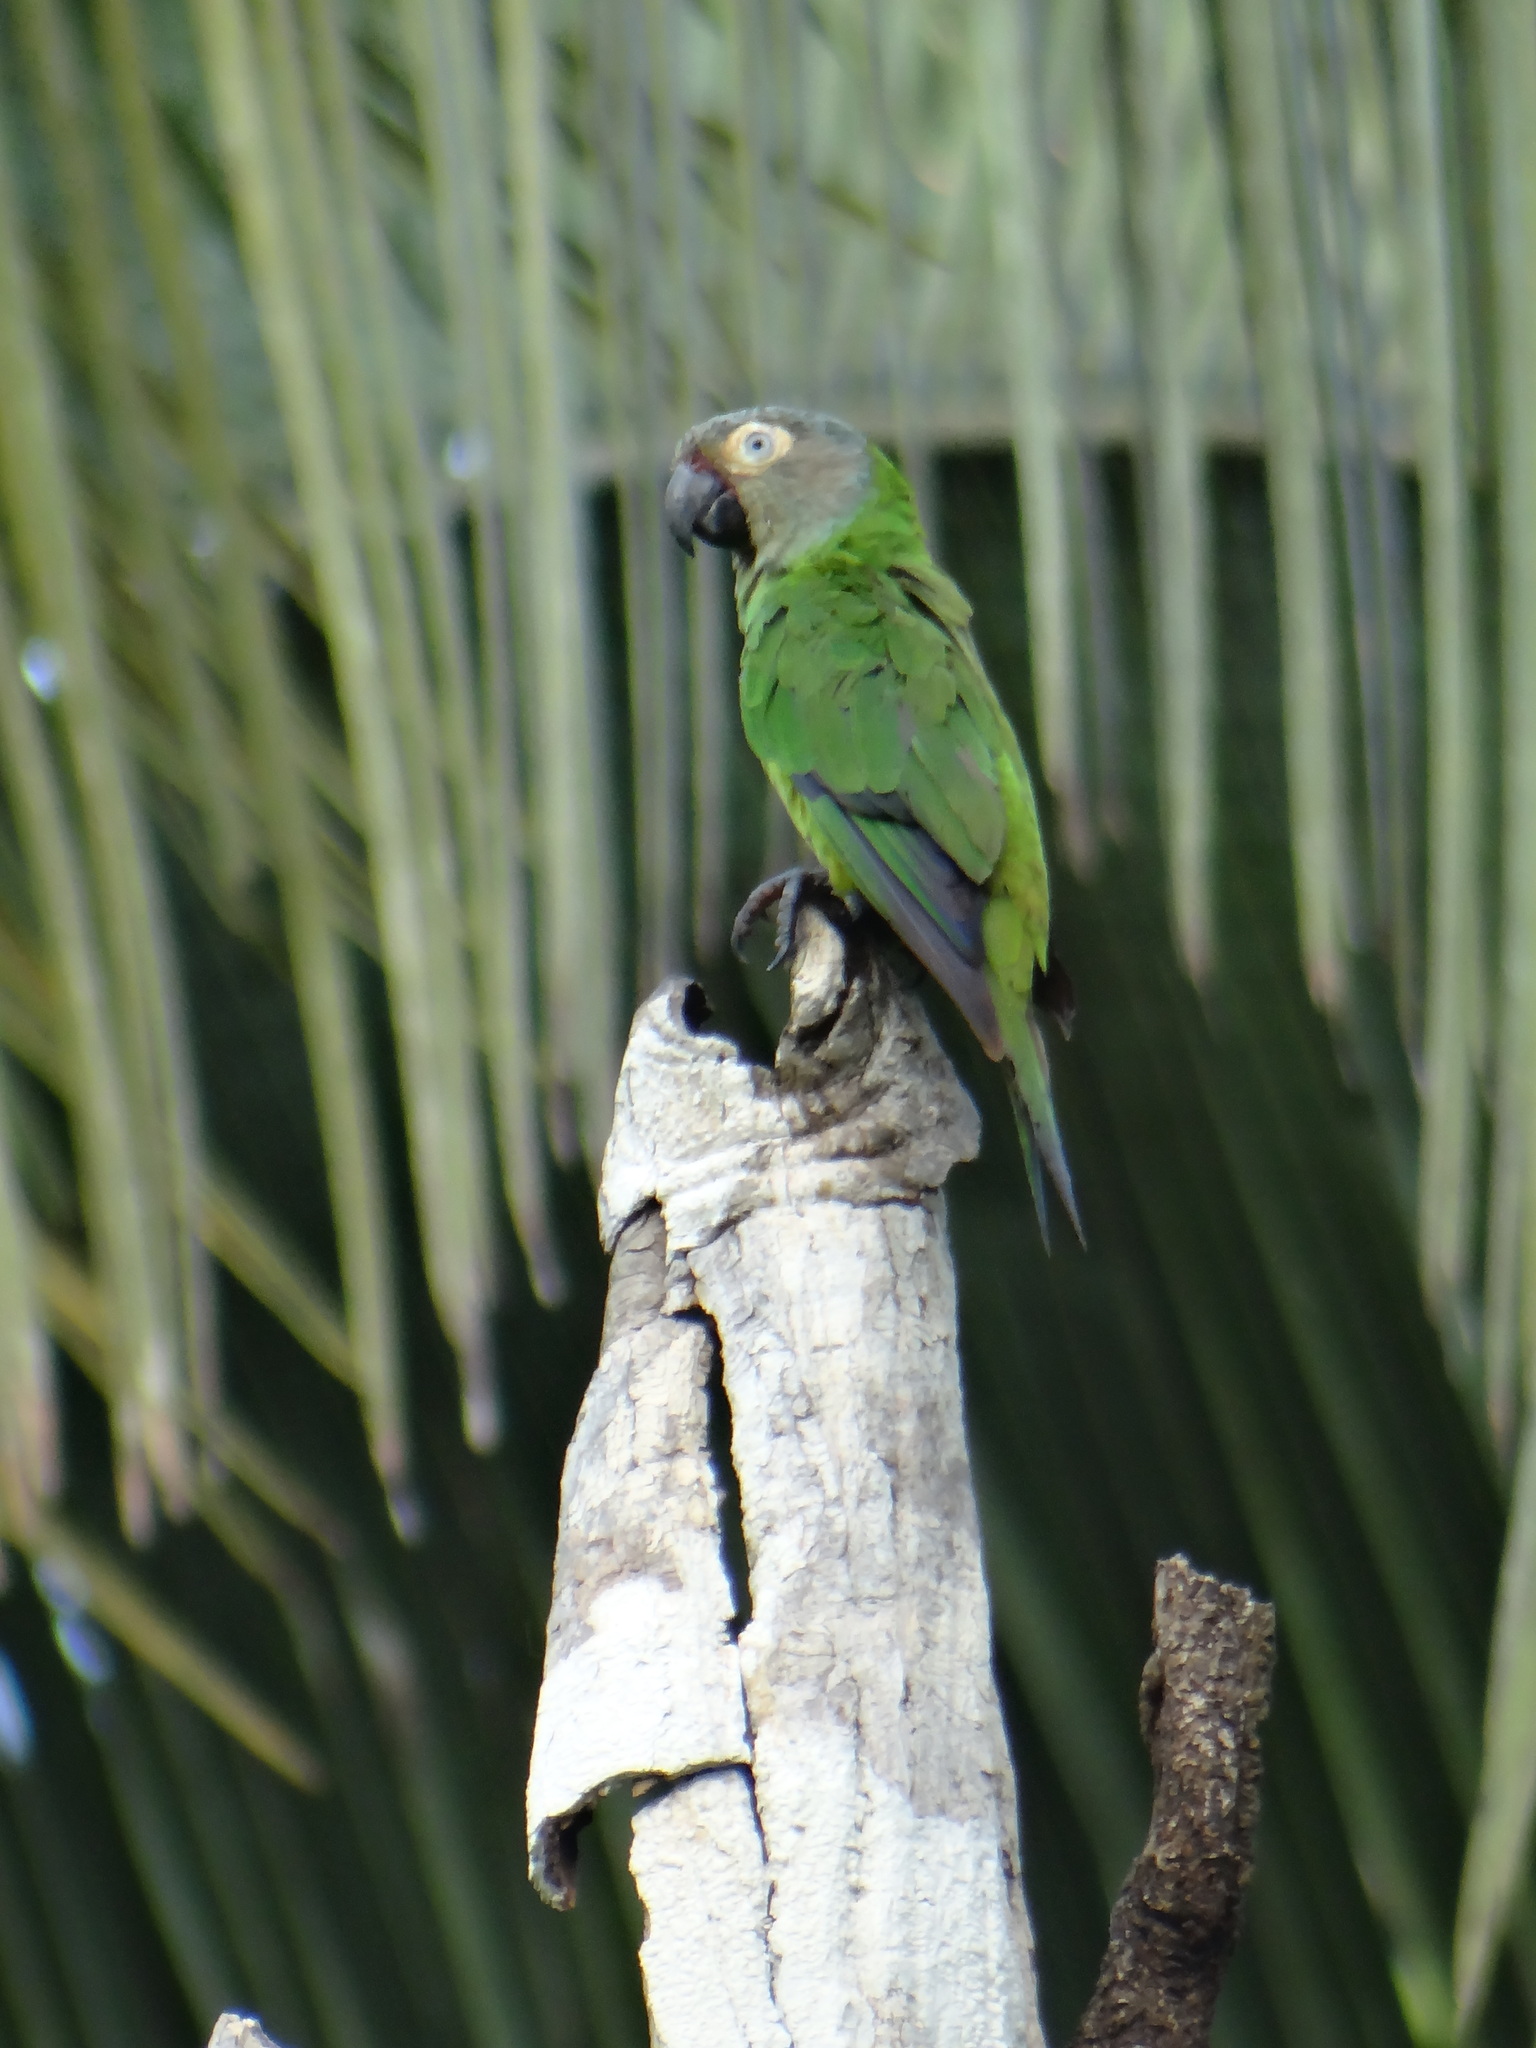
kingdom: Animalia
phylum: Chordata
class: Aves
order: Psittaciformes
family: Psittacidae
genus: Aratinga
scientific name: Aratinga weddellii
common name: Dusky-headed parakeet
